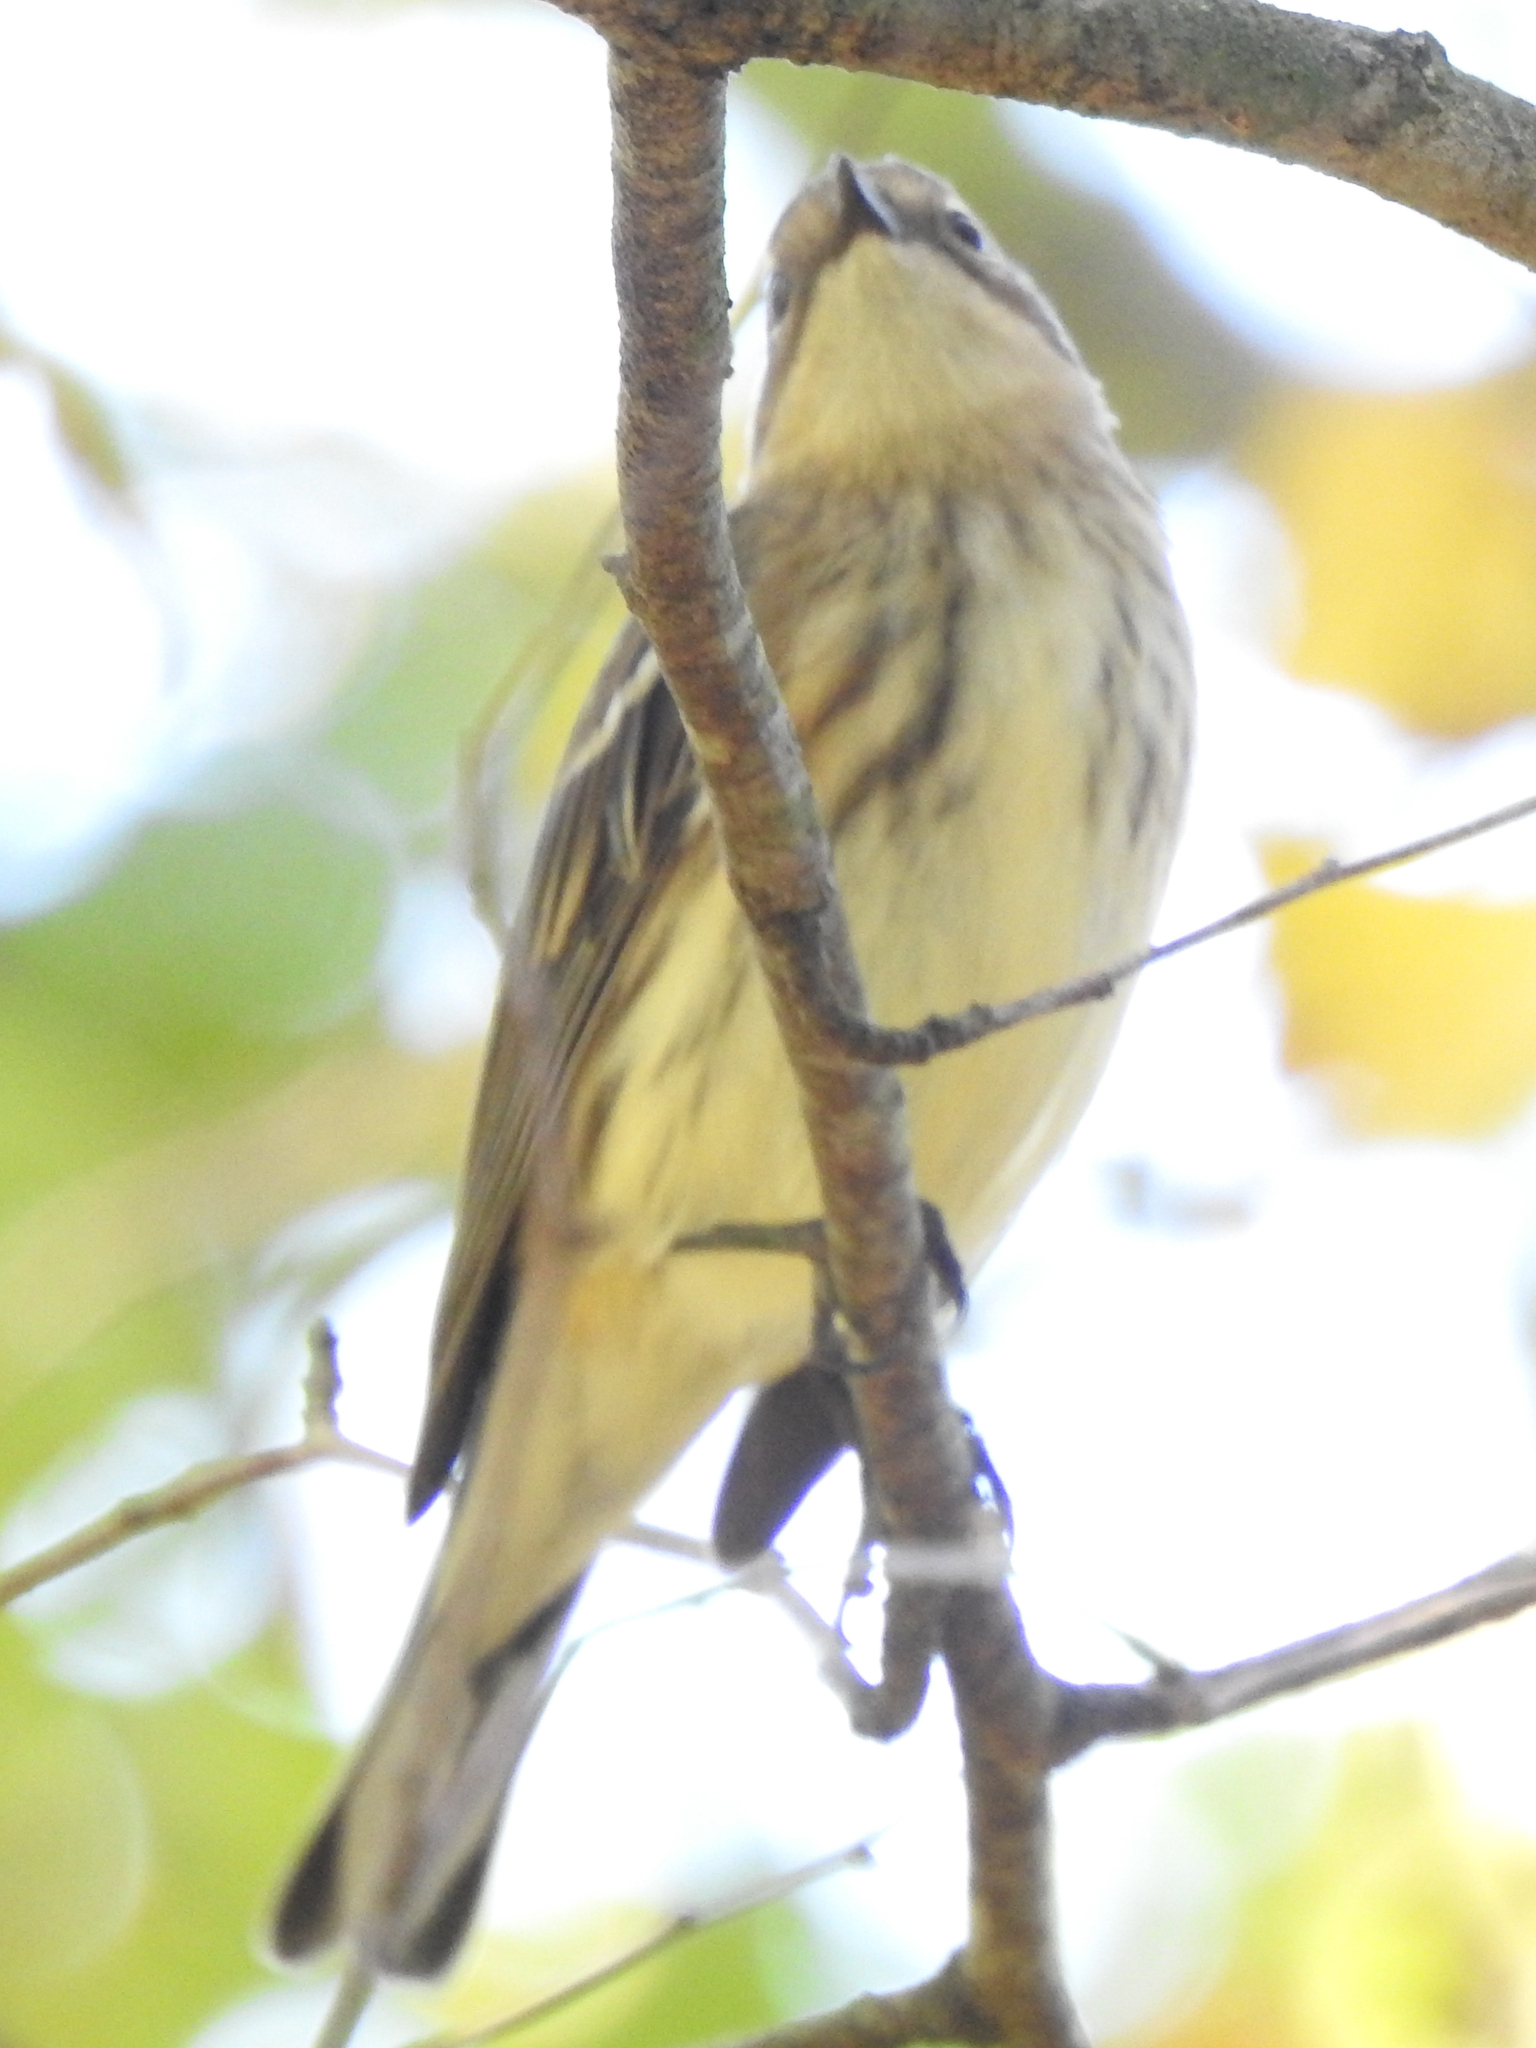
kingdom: Animalia
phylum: Chordata
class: Aves
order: Passeriformes
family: Parulidae
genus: Setophaga
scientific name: Setophaga coronata
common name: Myrtle warbler
